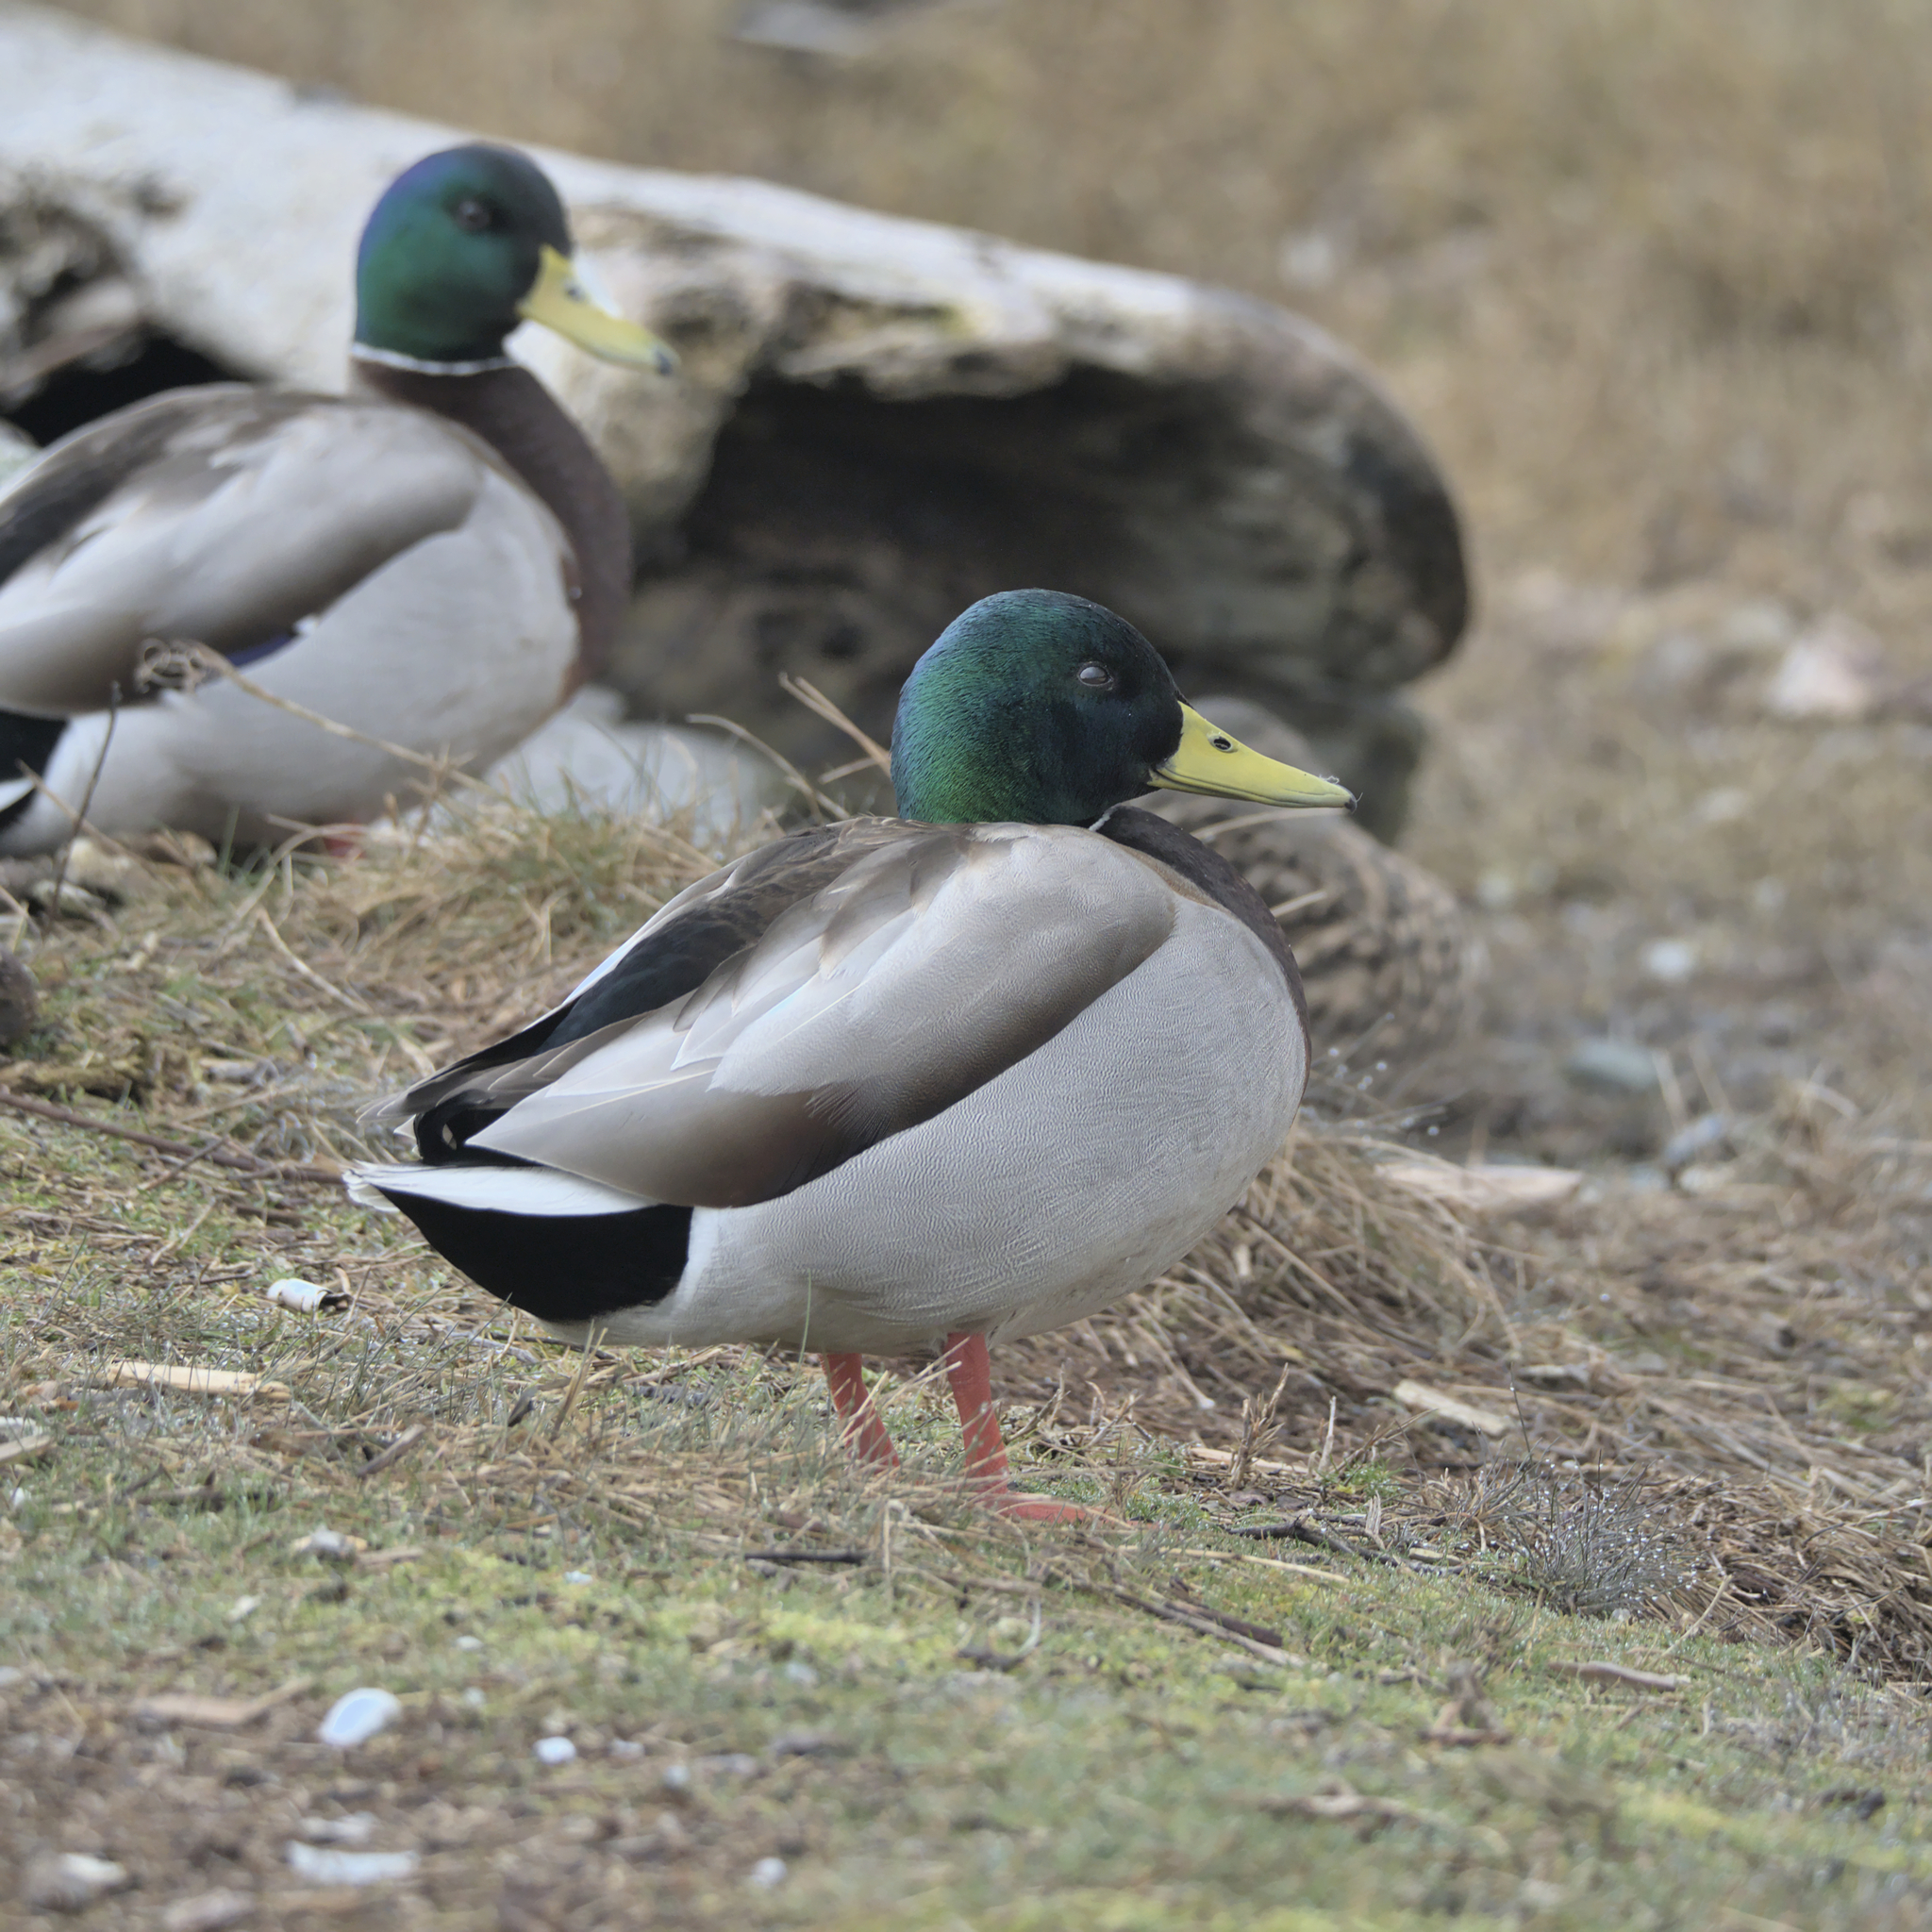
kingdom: Animalia
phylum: Chordata
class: Aves
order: Anseriformes
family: Anatidae
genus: Anas
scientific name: Anas platyrhynchos
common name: Mallard
